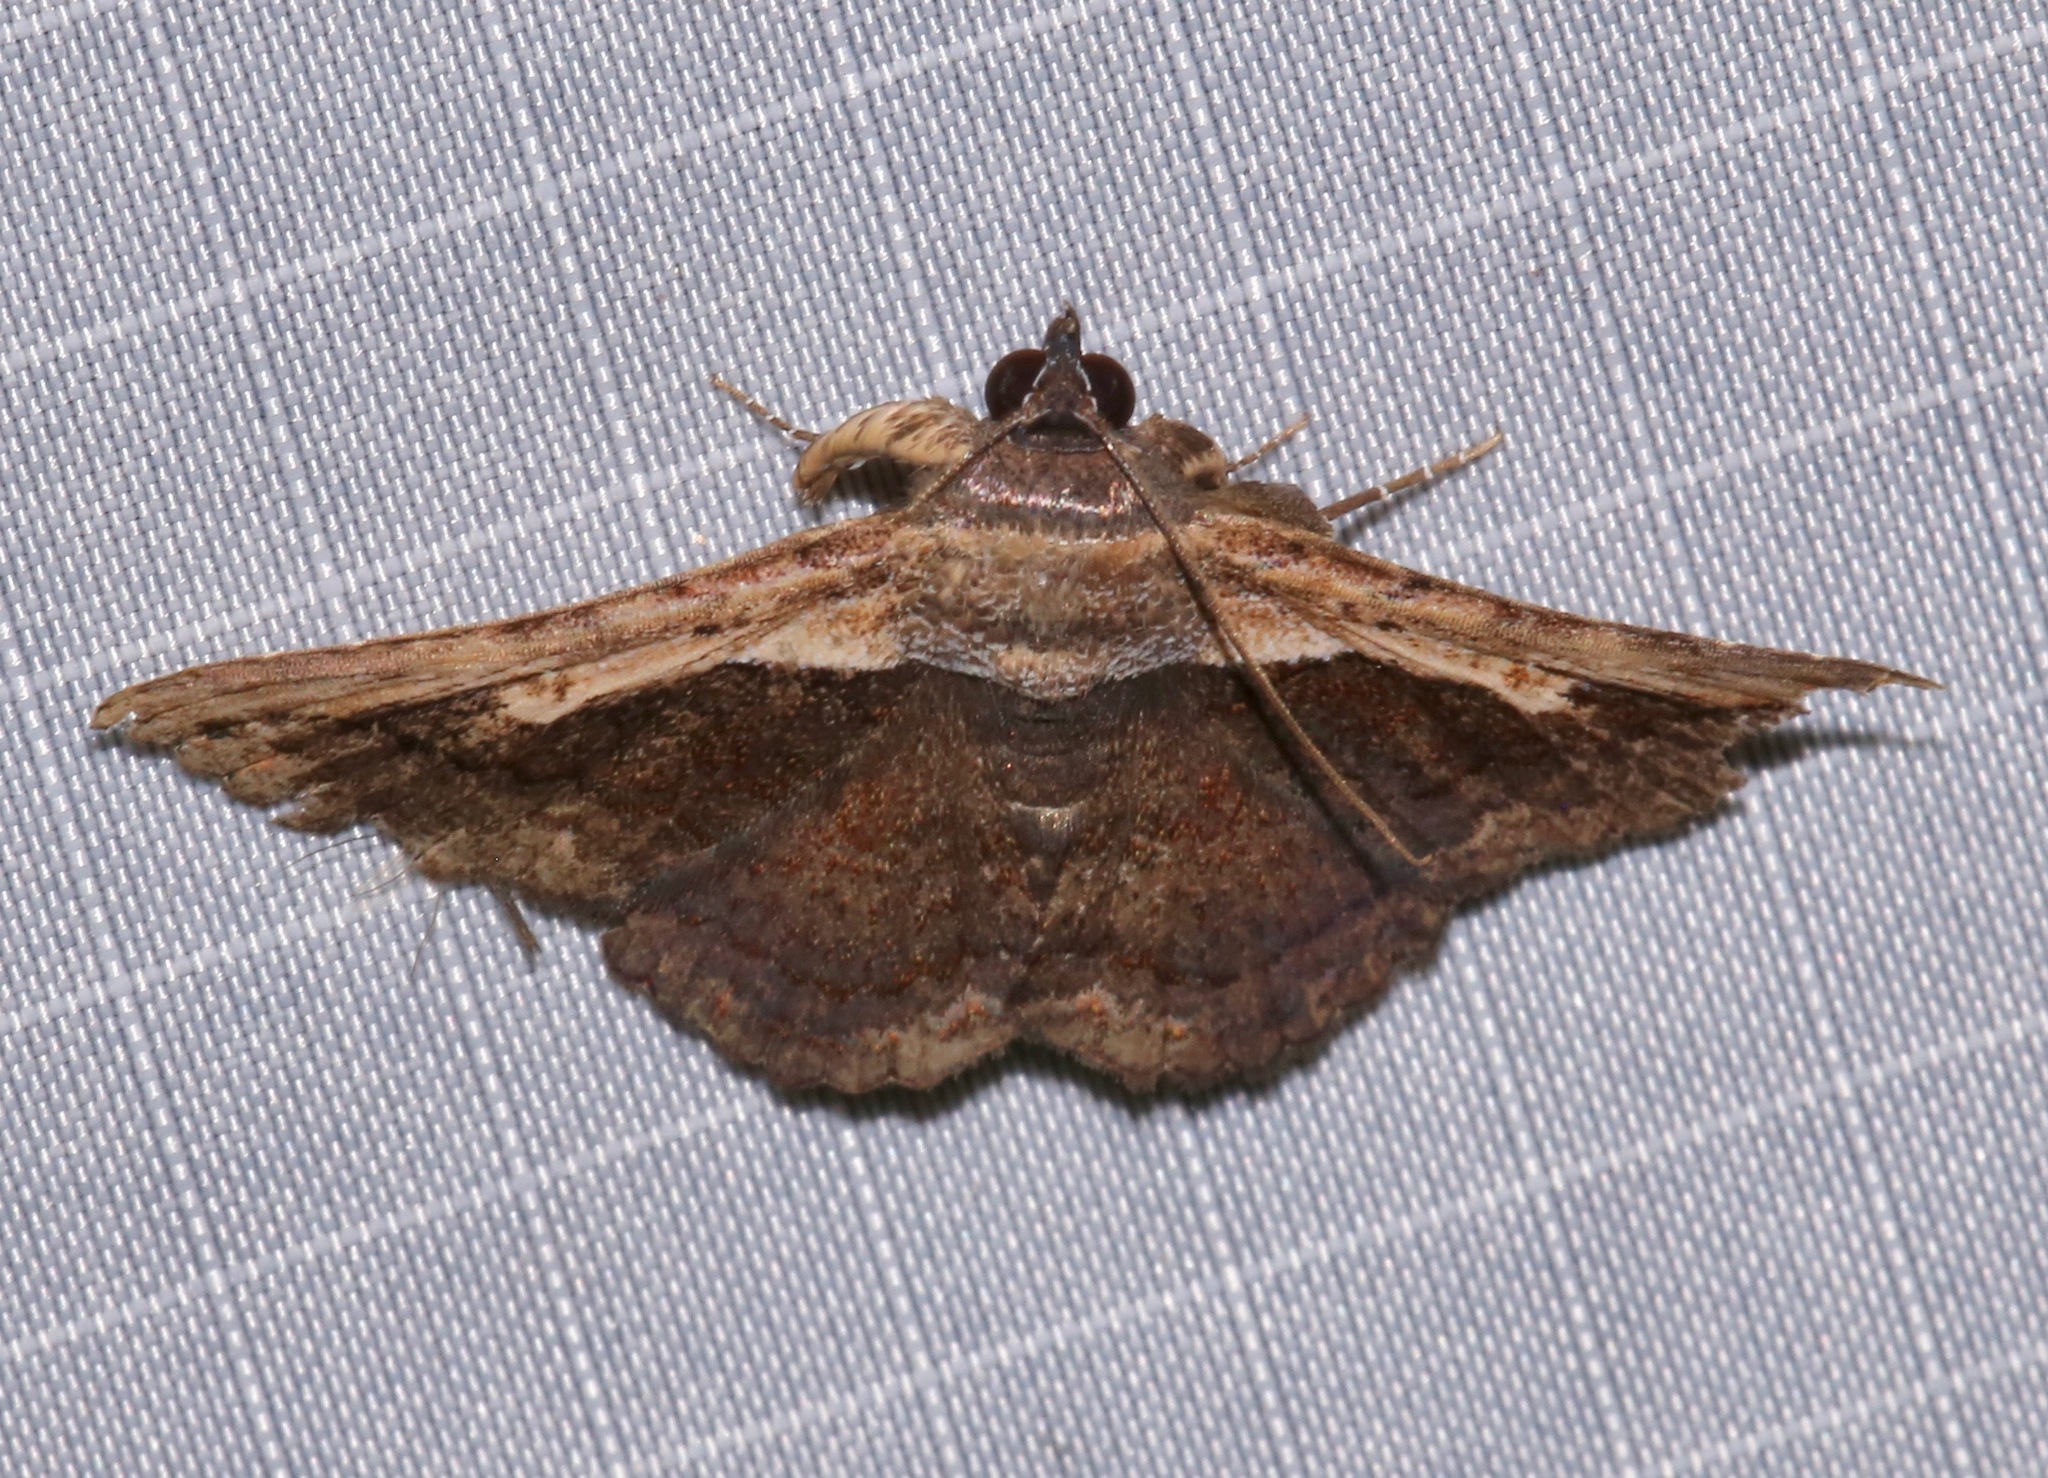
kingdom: Animalia
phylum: Arthropoda
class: Insecta
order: Lepidoptera
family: Erebidae
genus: Selenisa
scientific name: Selenisa sueroides
